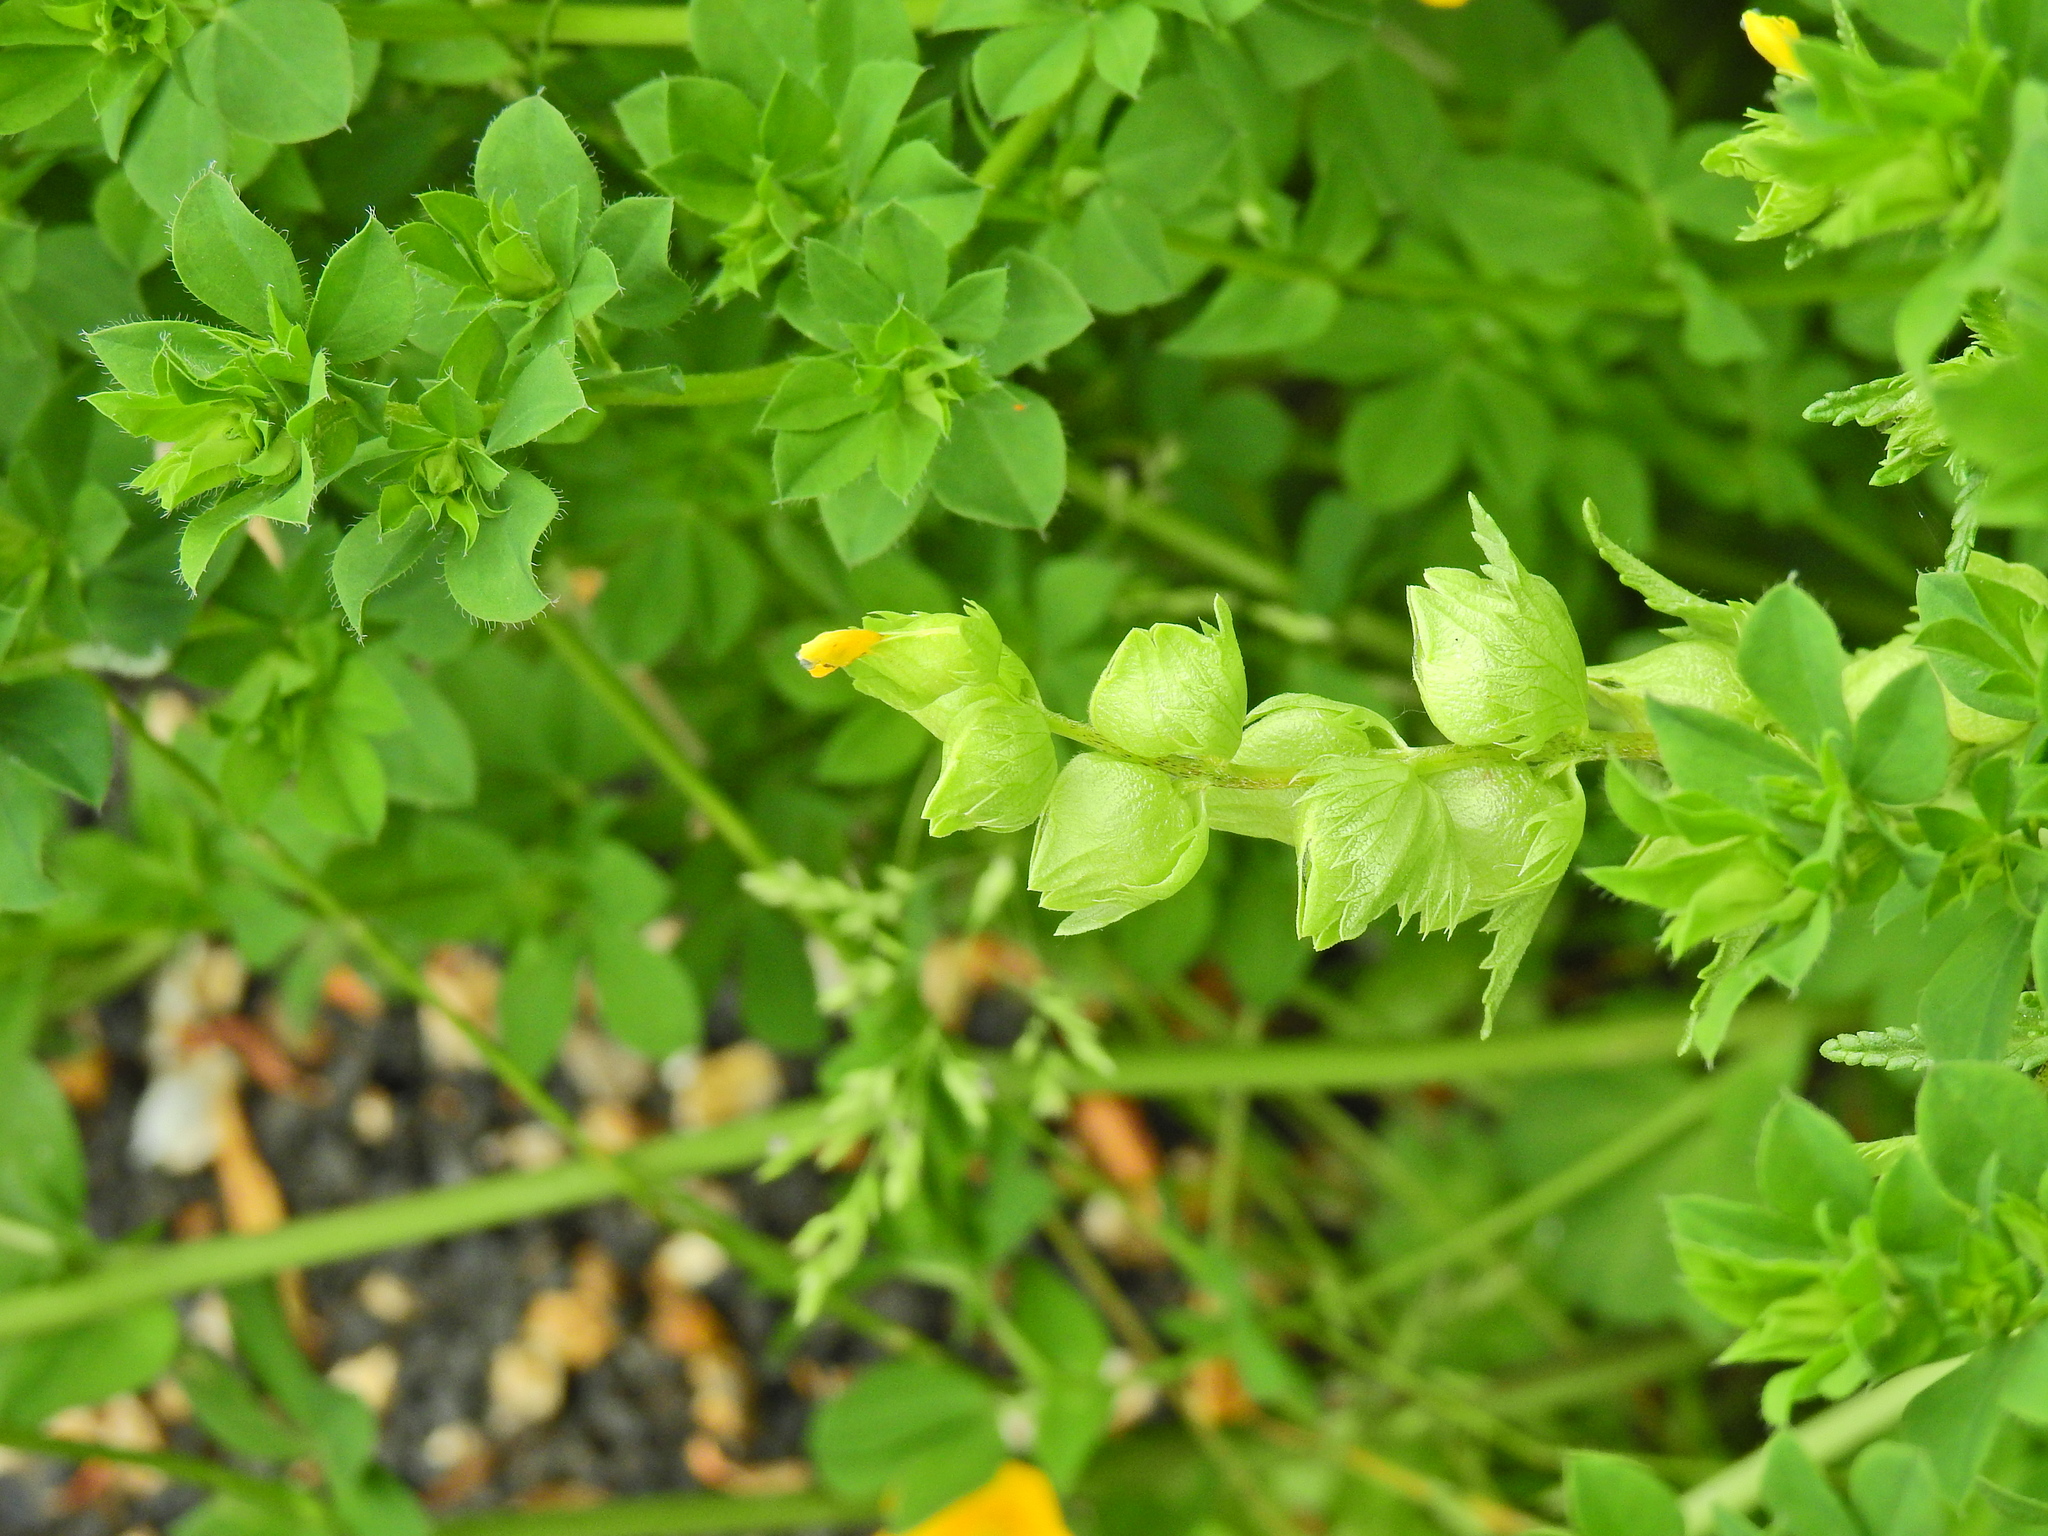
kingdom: Plantae
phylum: Tracheophyta
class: Magnoliopsida
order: Lamiales
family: Orobanchaceae
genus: Rhinanthus
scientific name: Rhinanthus minor
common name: Yellow-rattle
